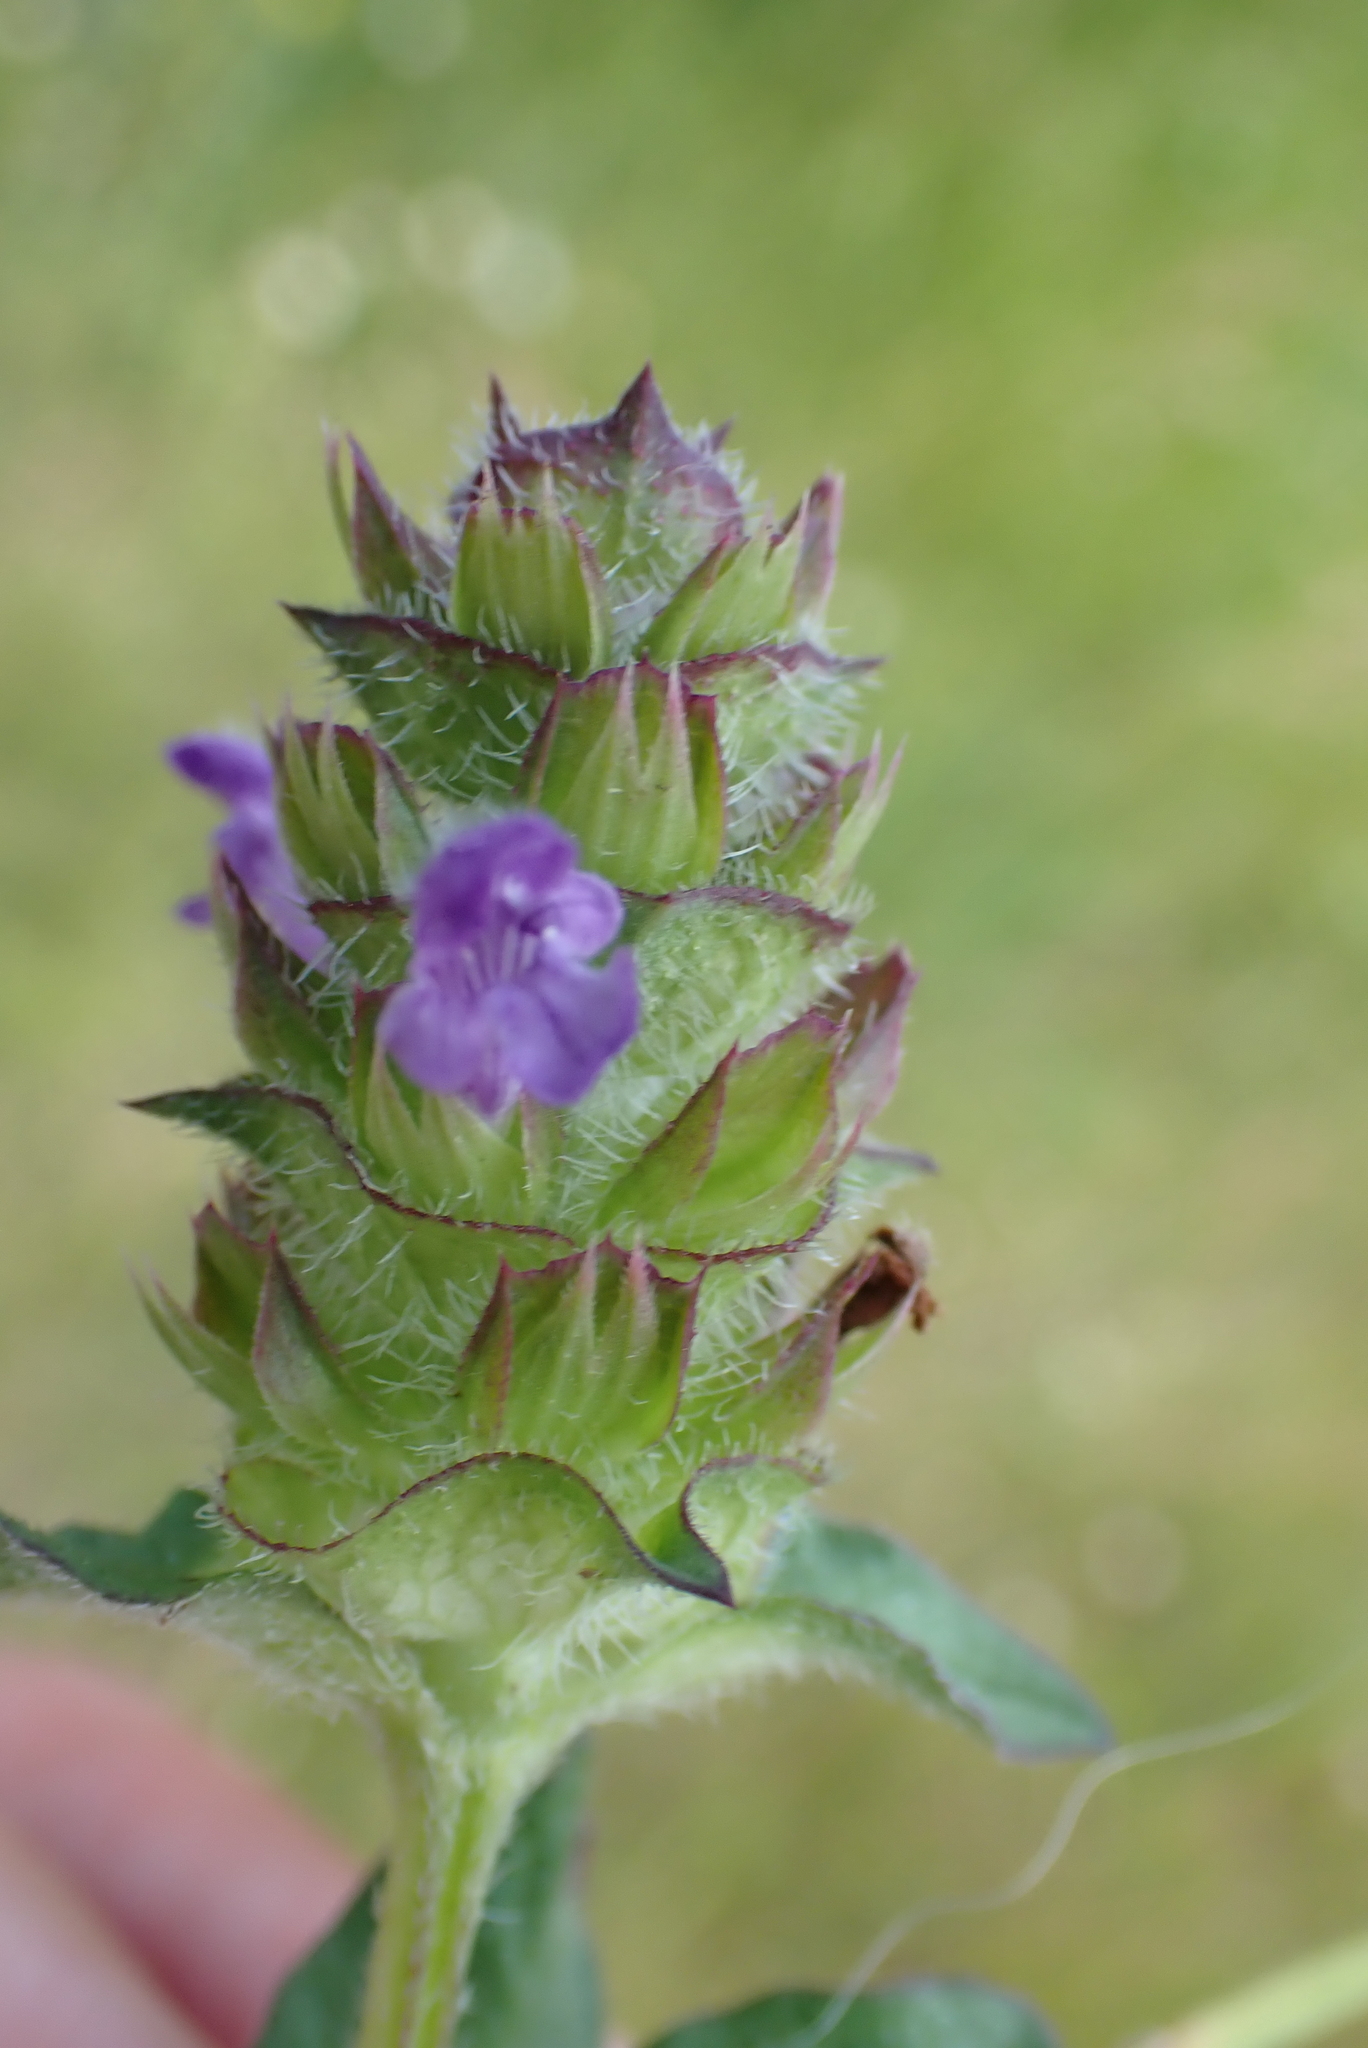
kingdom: Plantae
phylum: Tracheophyta
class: Magnoliopsida
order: Lamiales
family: Lamiaceae
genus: Prunella
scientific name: Prunella vulgaris
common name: Heal-all
